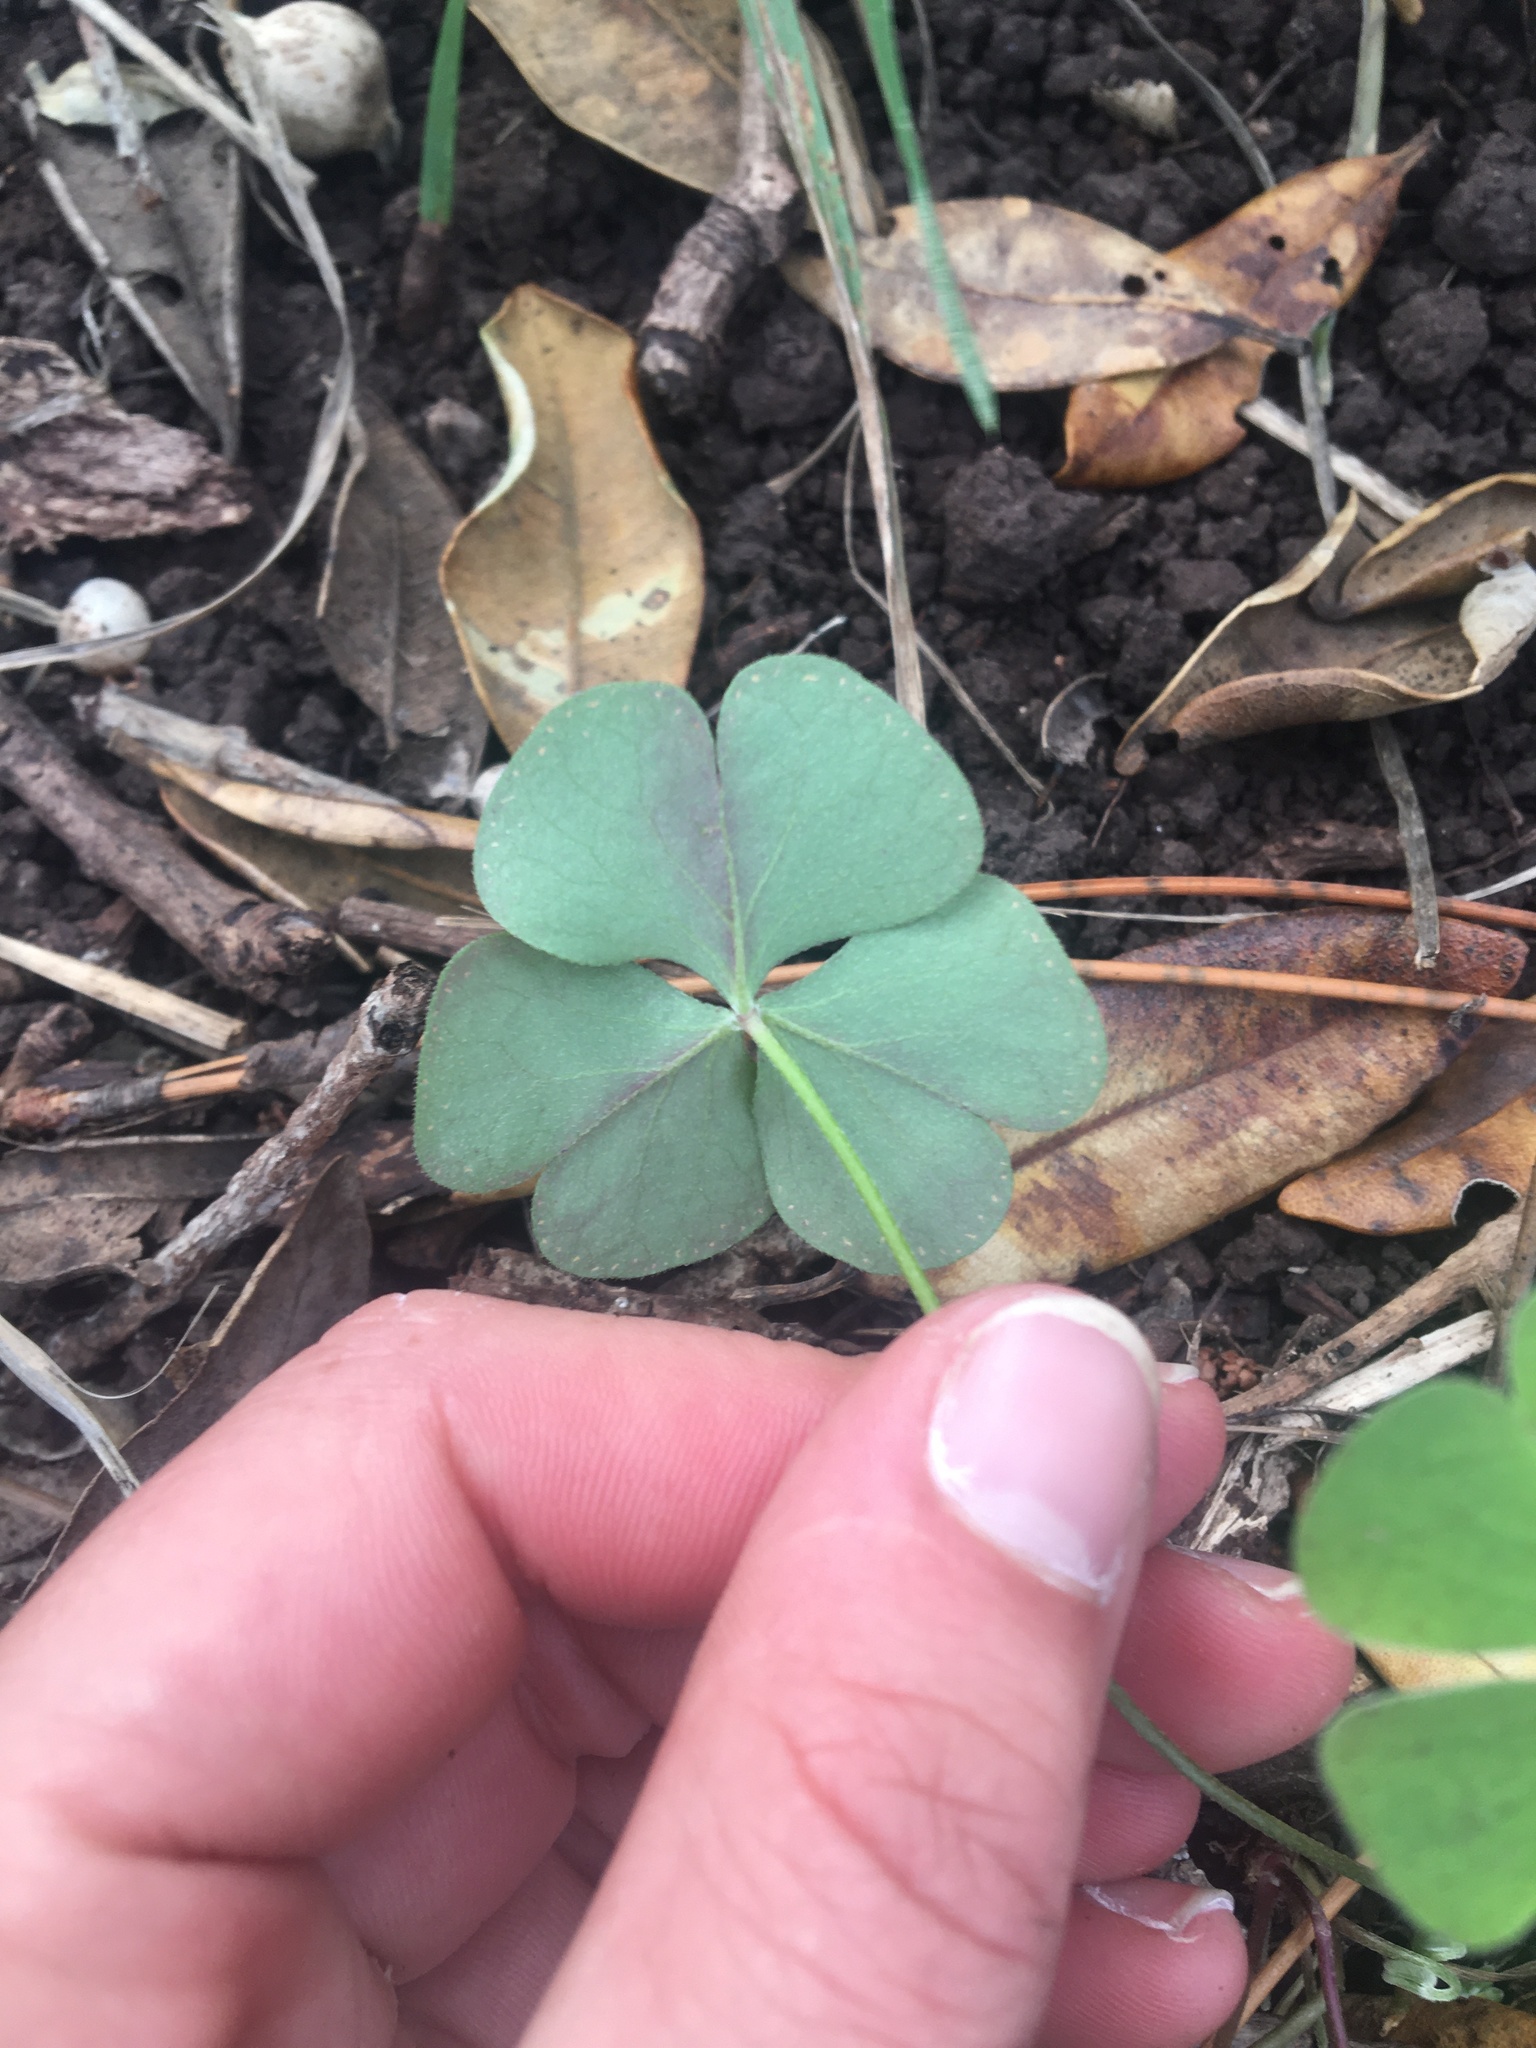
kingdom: Plantae
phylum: Tracheophyta
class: Magnoliopsida
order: Oxalidales
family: Oxalidaceae
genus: Oxalis
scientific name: Oxalis articulata
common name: Pink-sorrel
